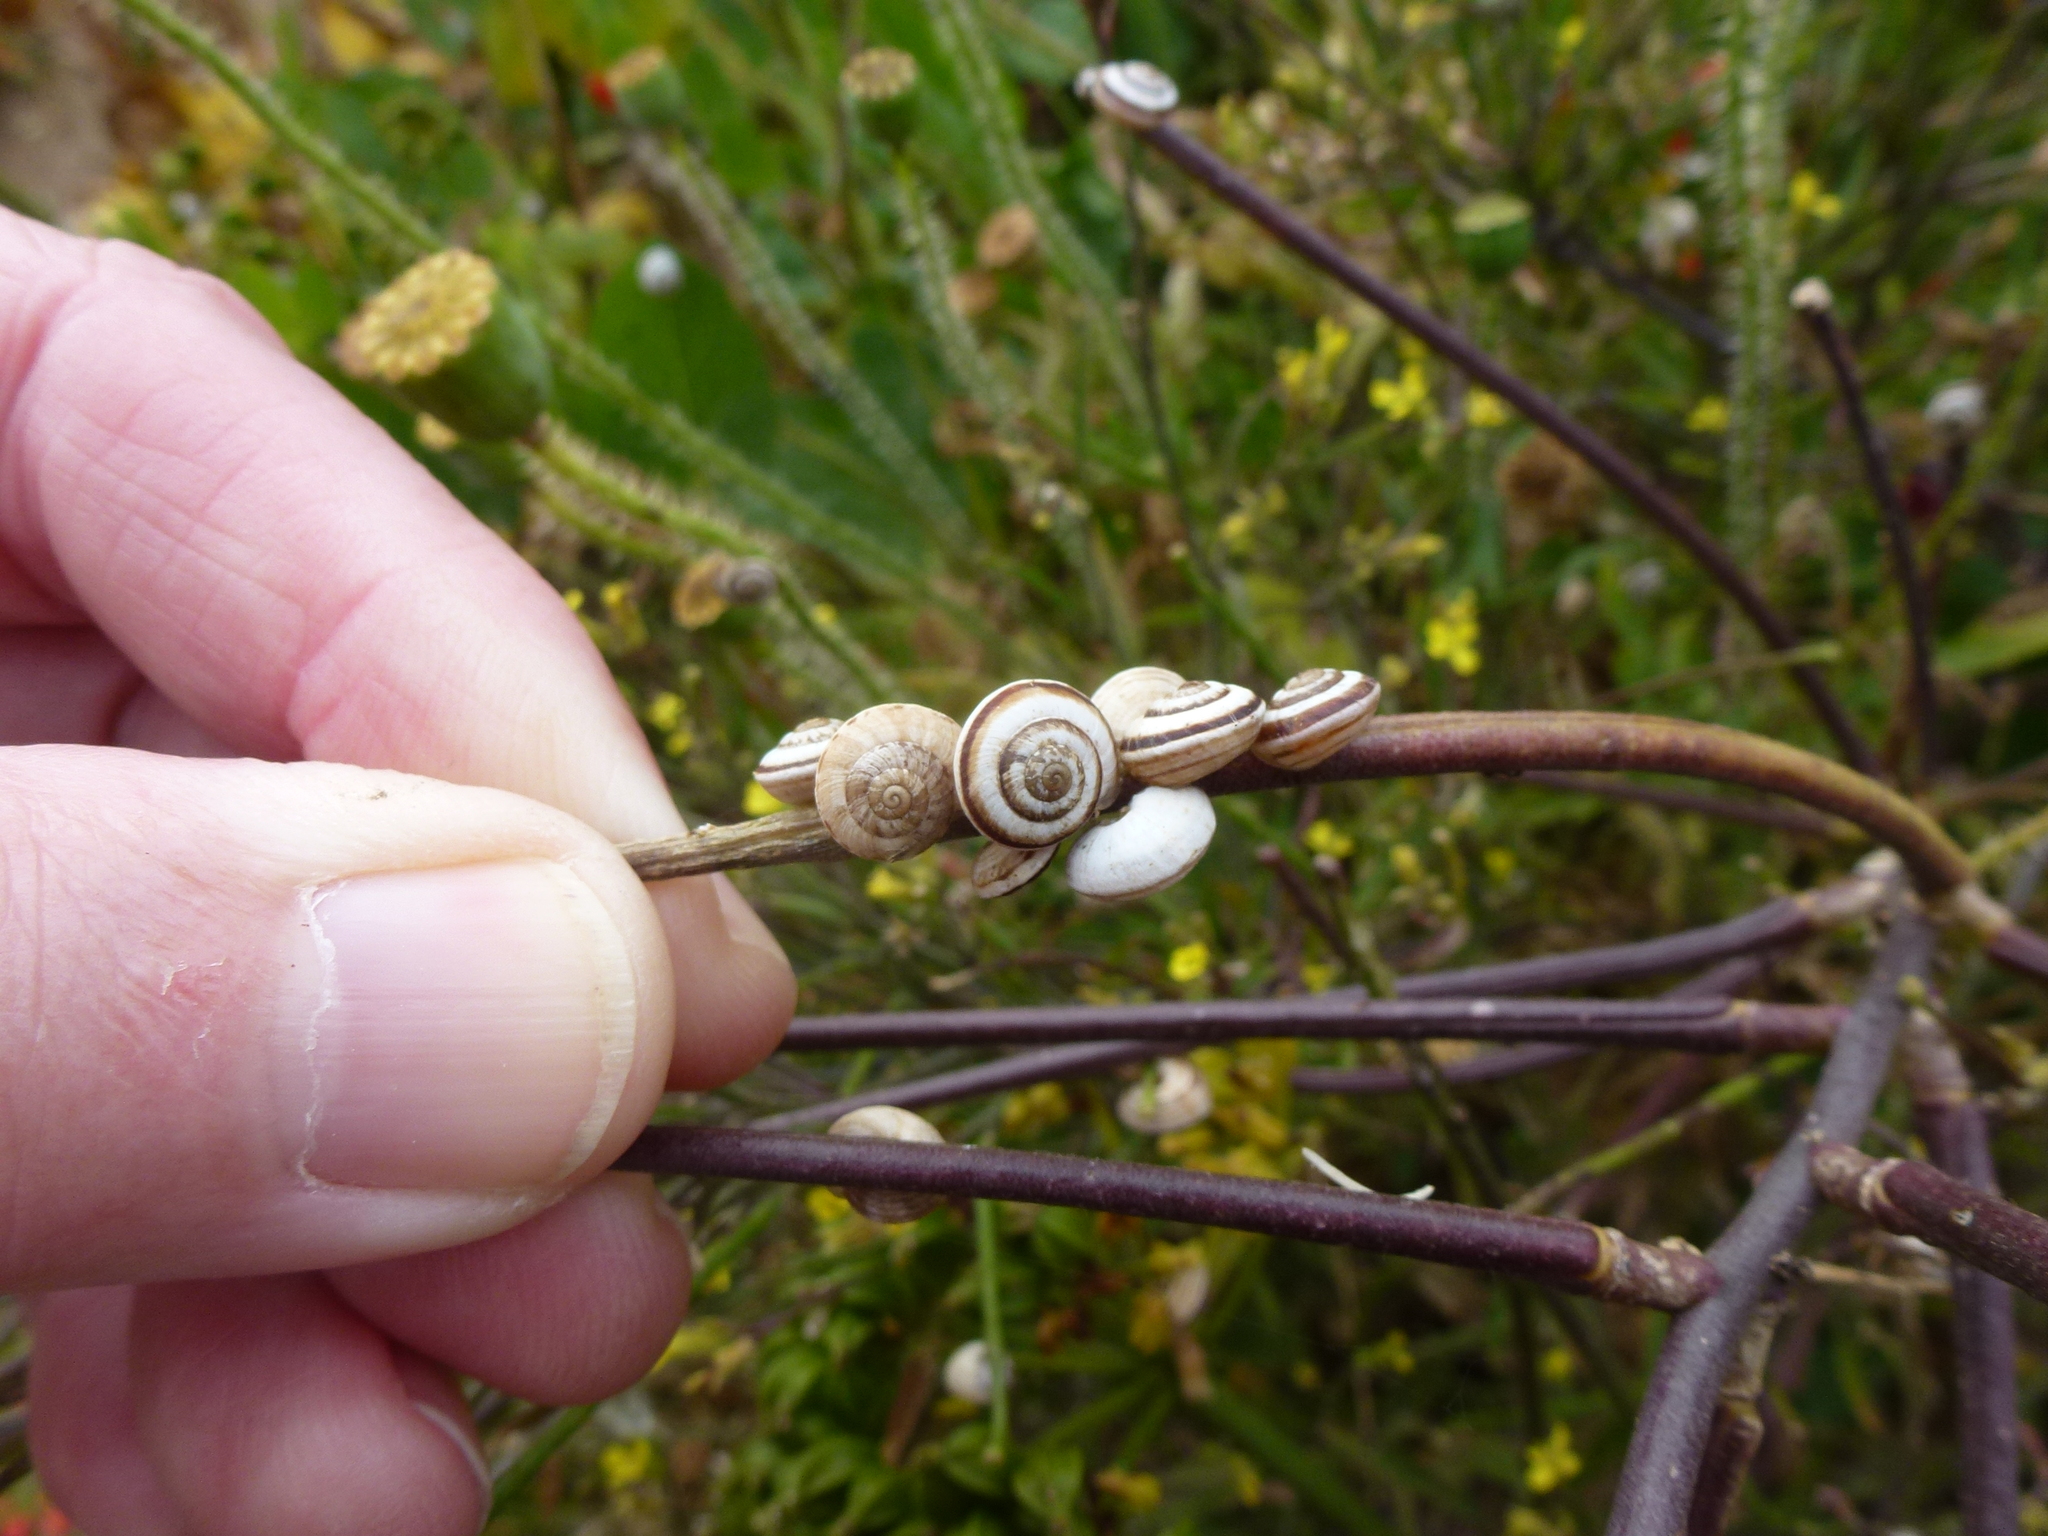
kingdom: Animalia
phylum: Mollusca
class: Gastropoda
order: Stylommatophora
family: Geomitridae
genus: Cernuella
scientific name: Cernuella virgata
